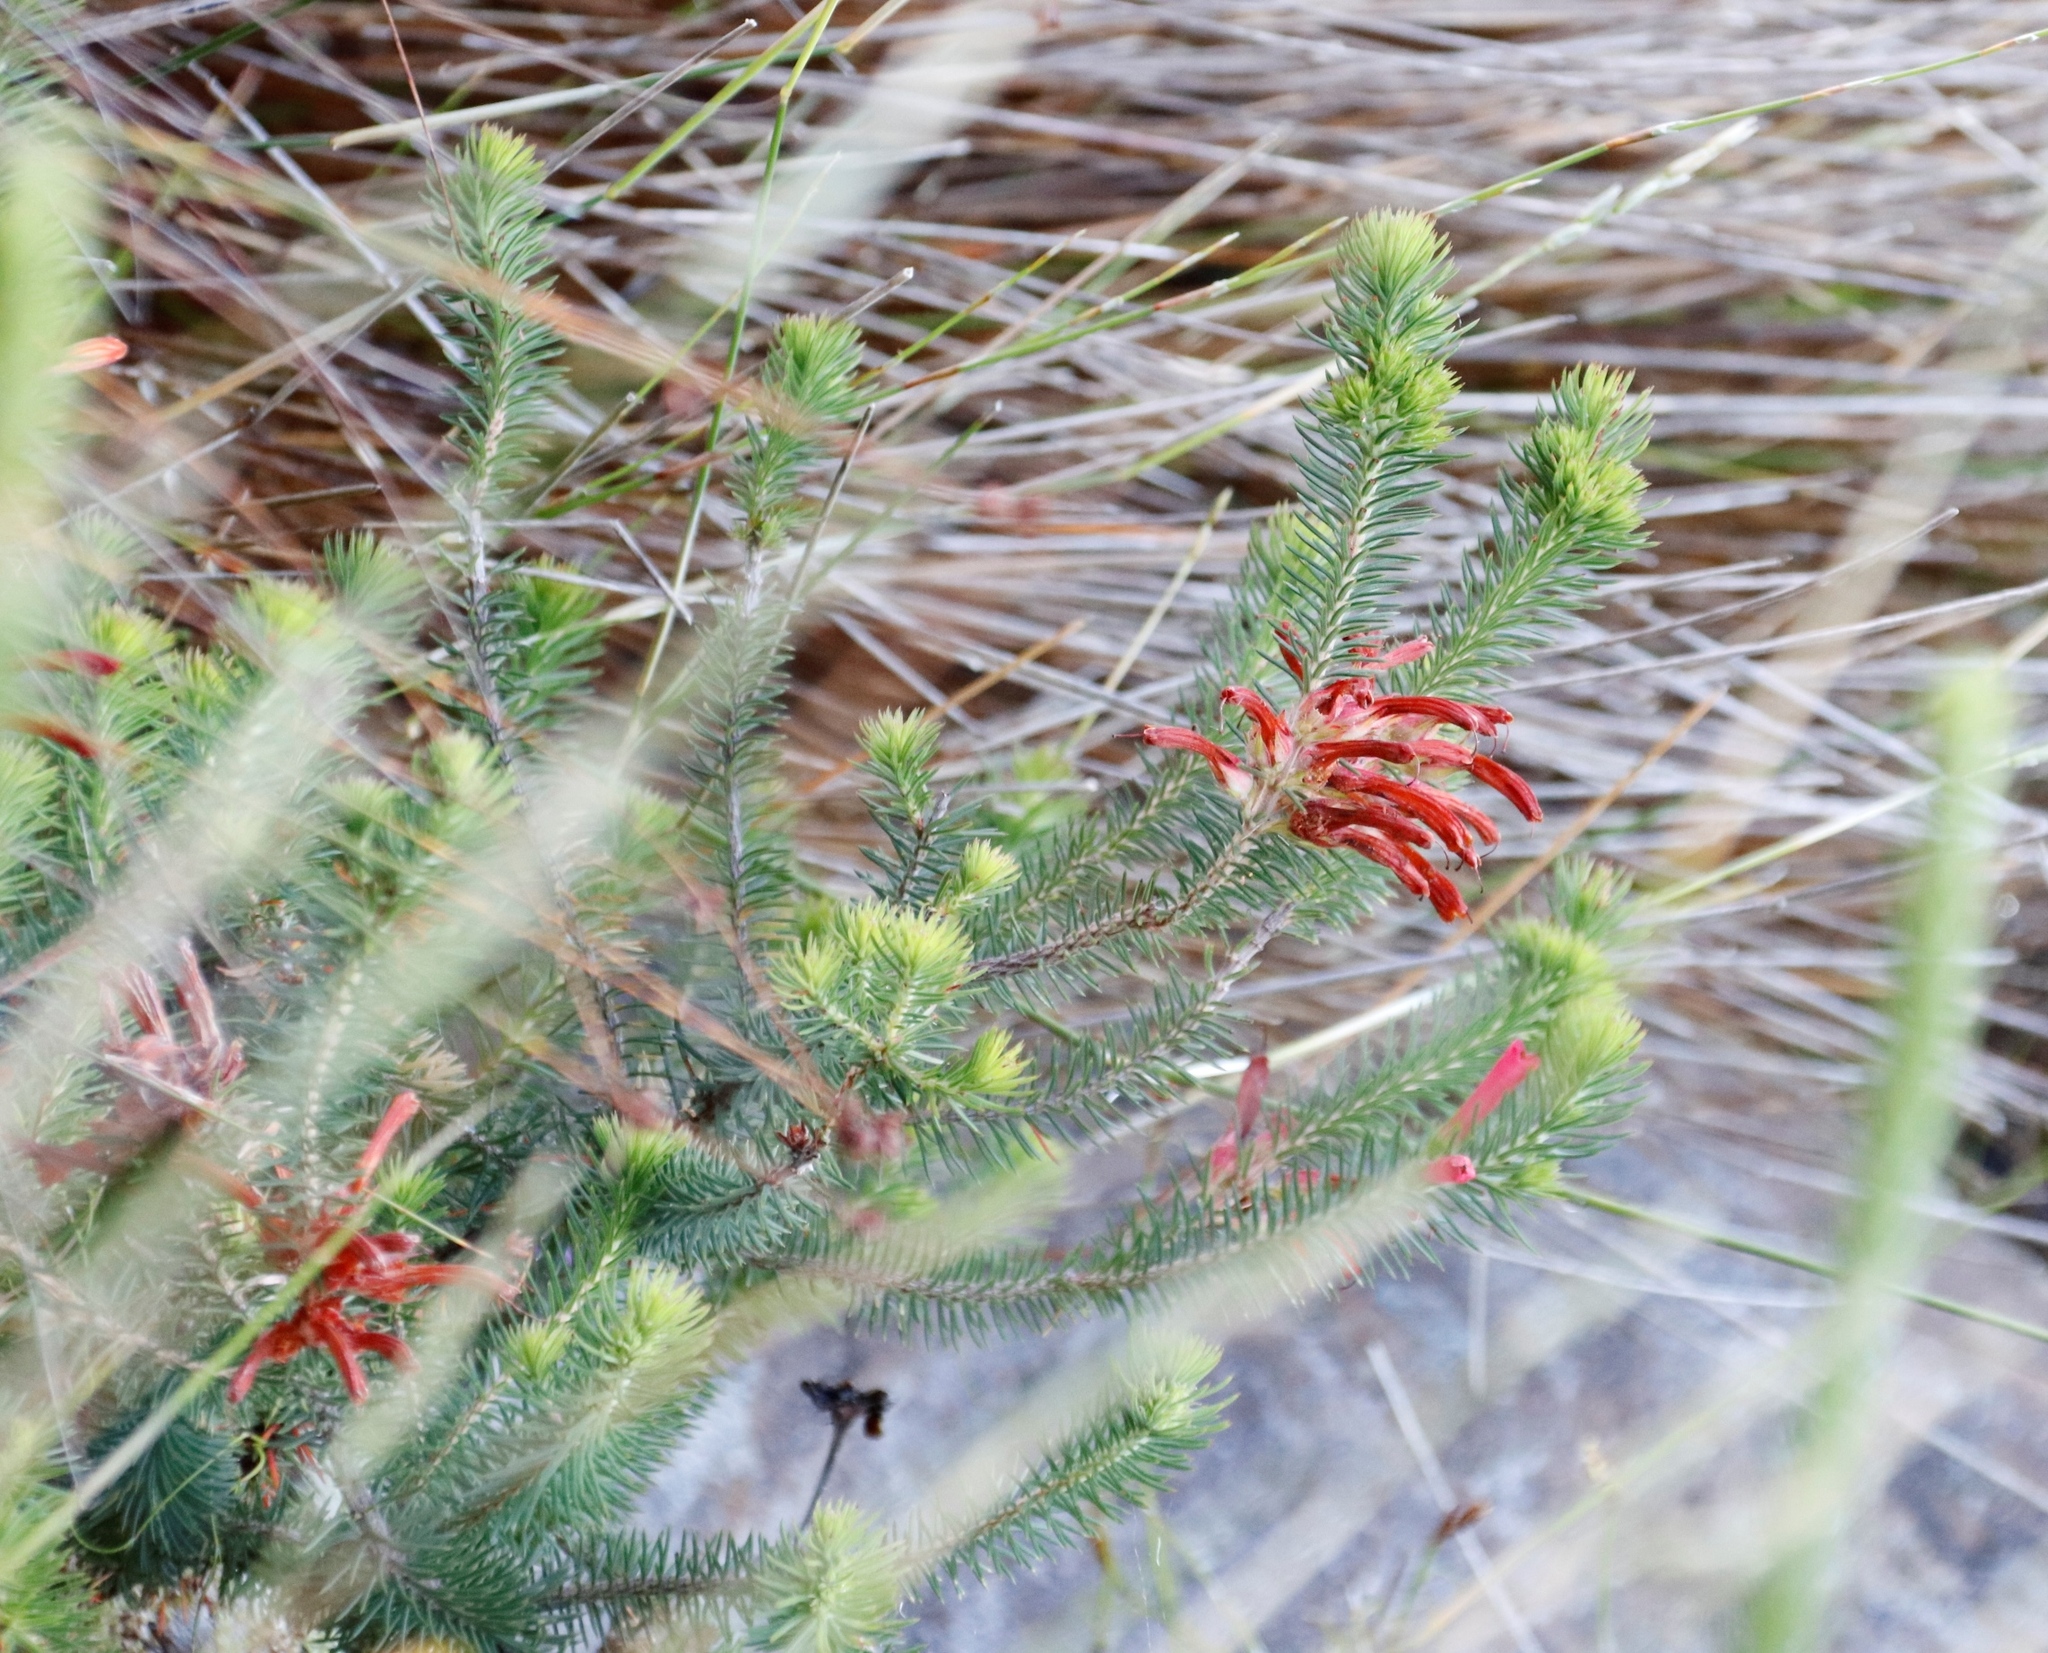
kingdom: Plantae
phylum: Tracheophyta
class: Magnoliopsida
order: Ericales
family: Ericaceae
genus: Erica
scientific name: Erica abietina
